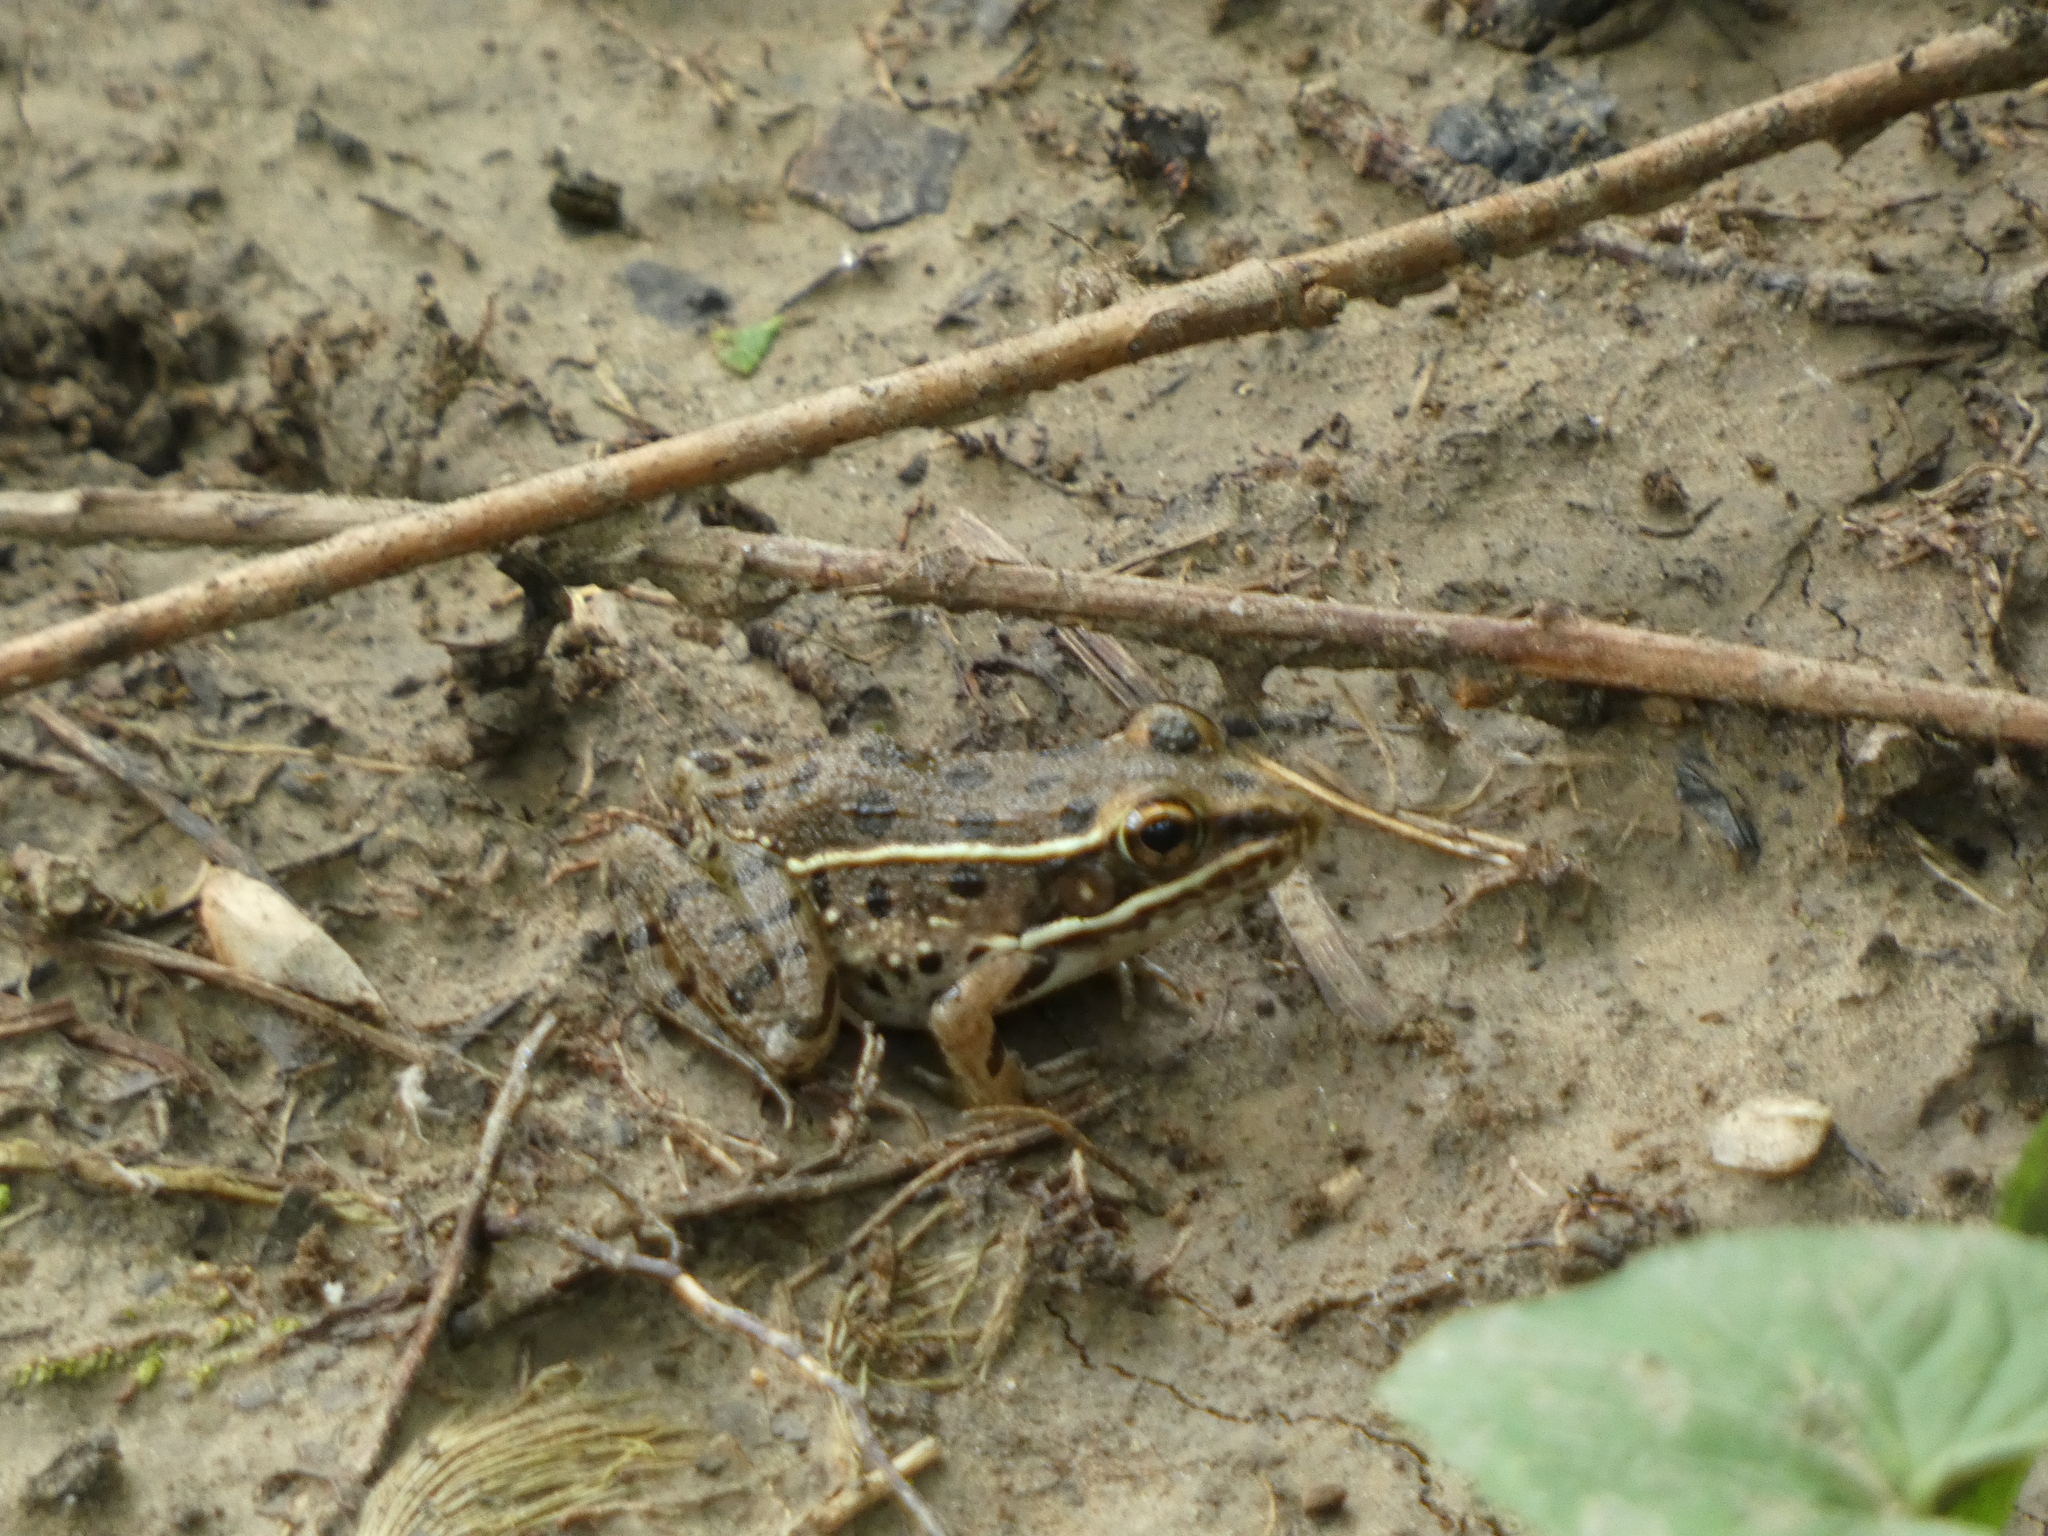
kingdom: Animalia
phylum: Chordata
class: Amphibia
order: Anura
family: Ranidae
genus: Lithobates
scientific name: Lithobates blairi
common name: Plains leopard frog
